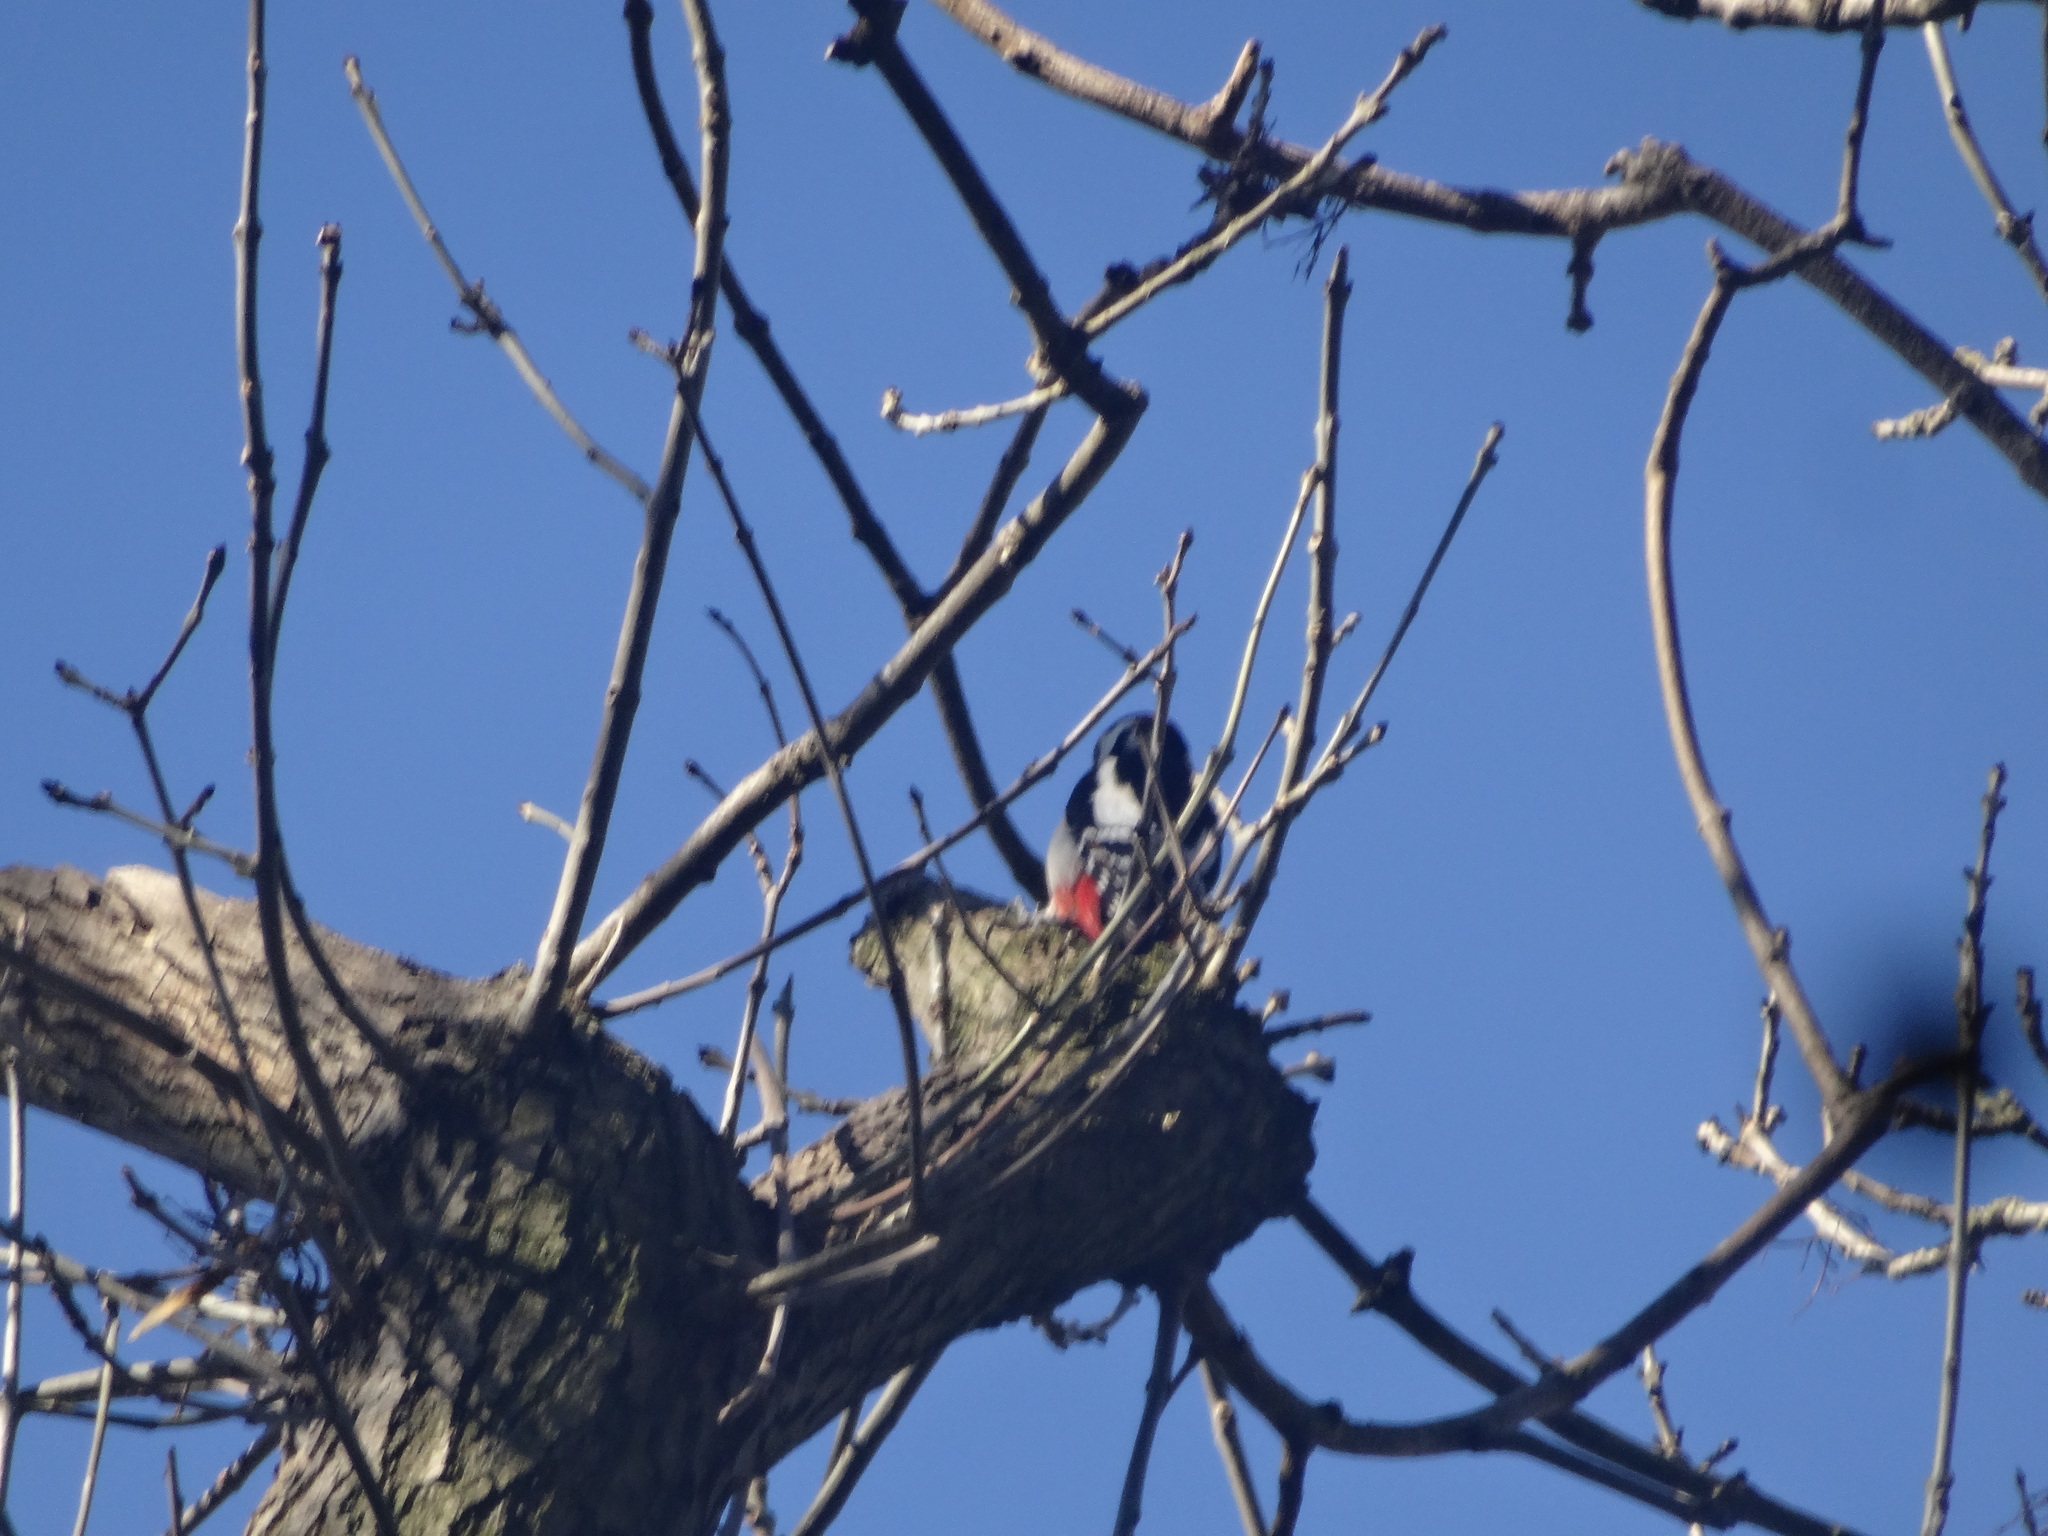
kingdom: Animalia
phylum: Chordata
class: Aves
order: Piciformes
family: Picidae
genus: Dendrocopos
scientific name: Dendrocopos major
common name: Great spotted woodpecker
